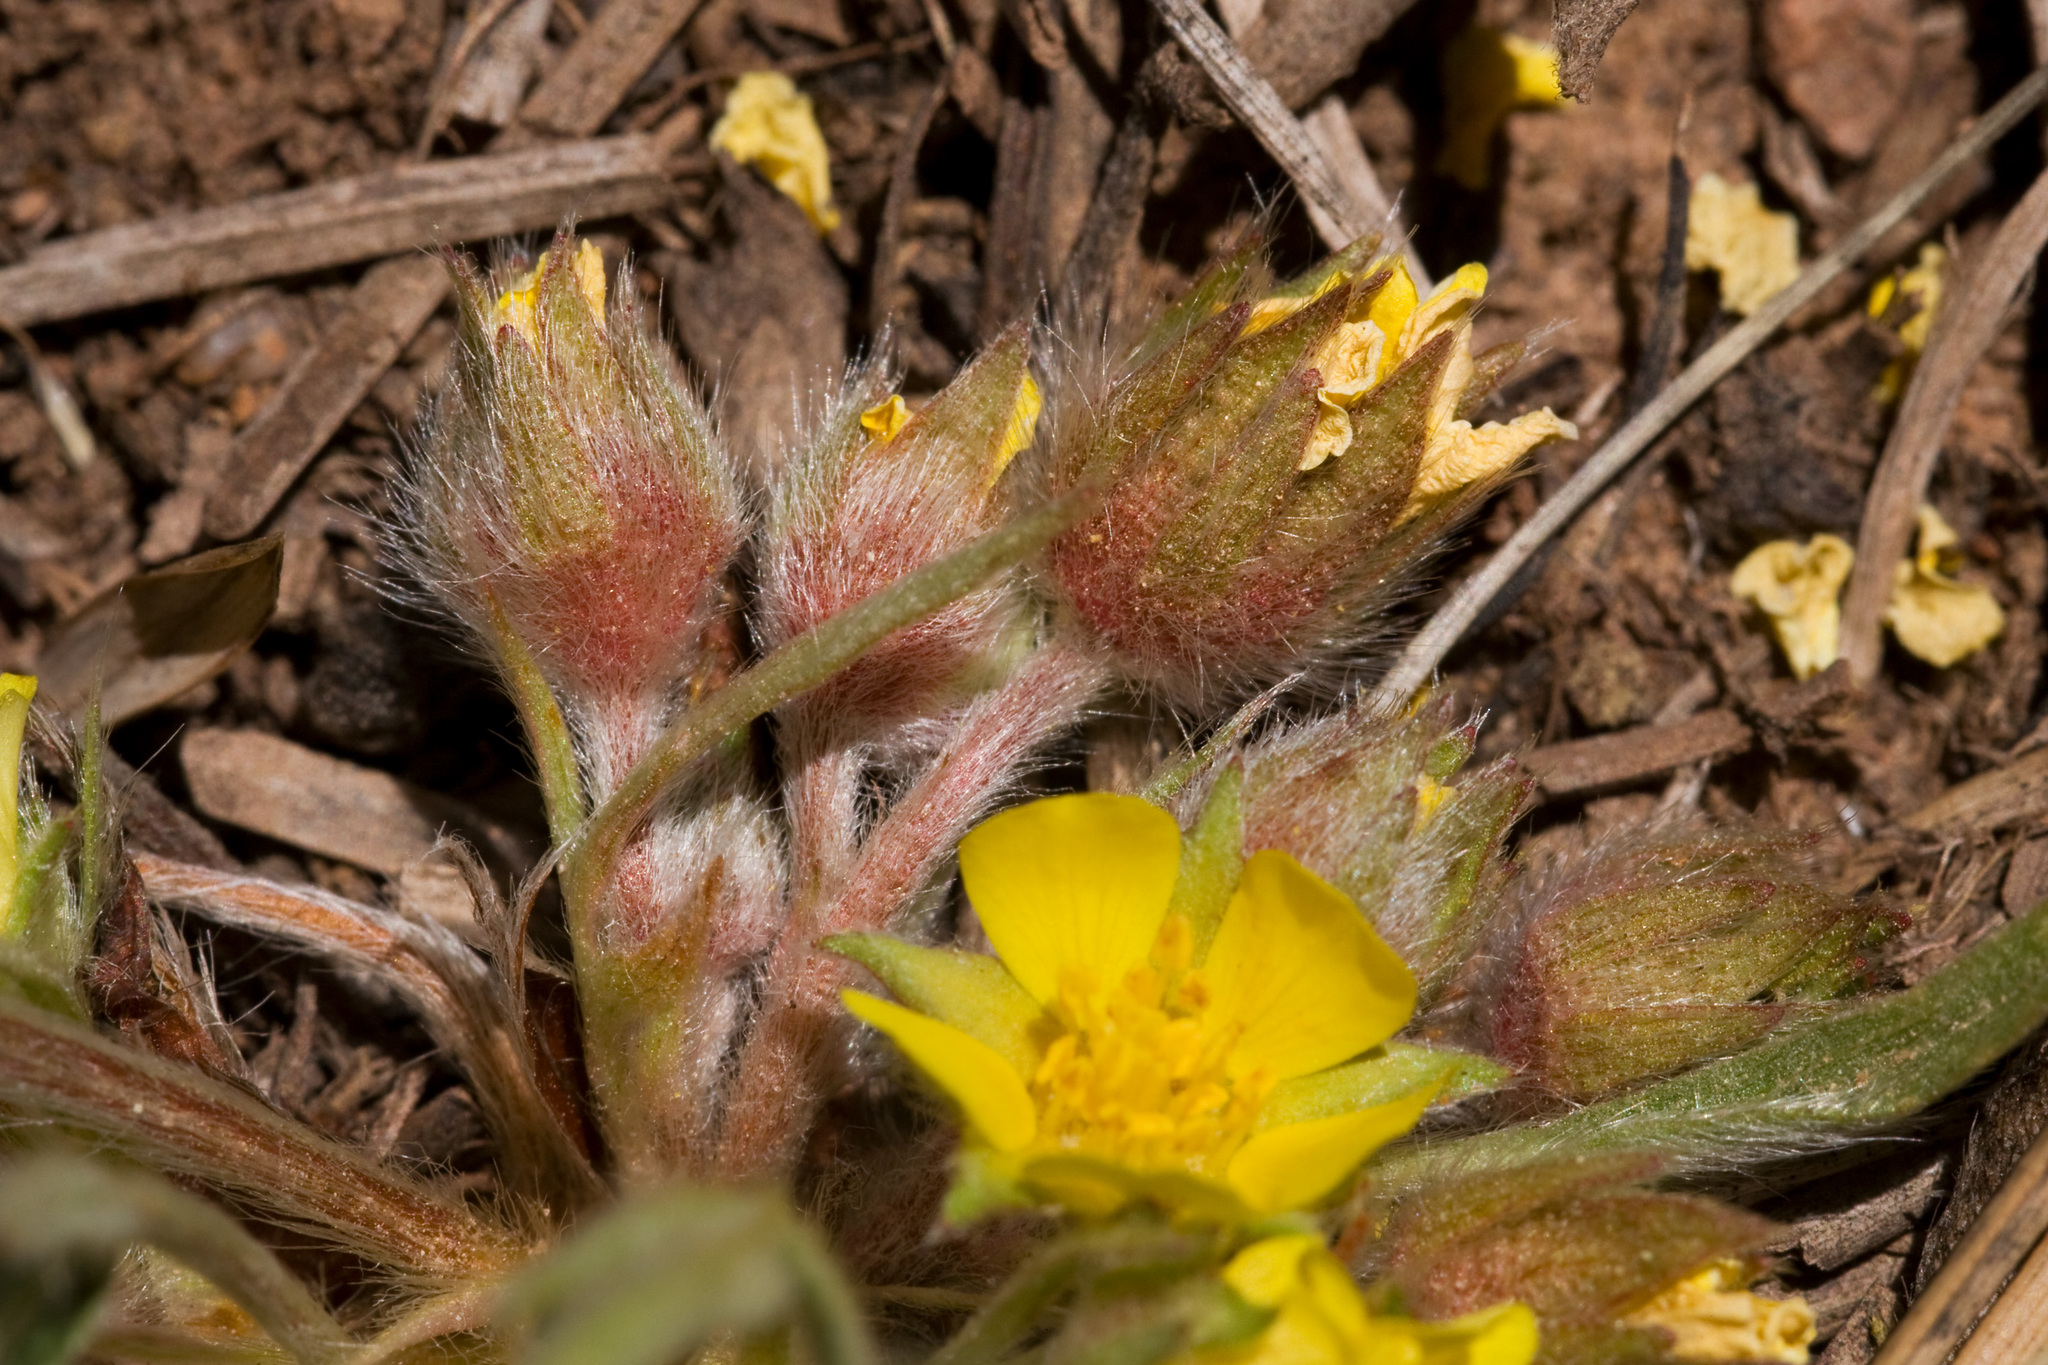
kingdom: Plantae
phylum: Tracheophyta
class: Magnoliopsida
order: Rosales
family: Rosaceae
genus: Potentilla
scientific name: Potentilla bicrenata
